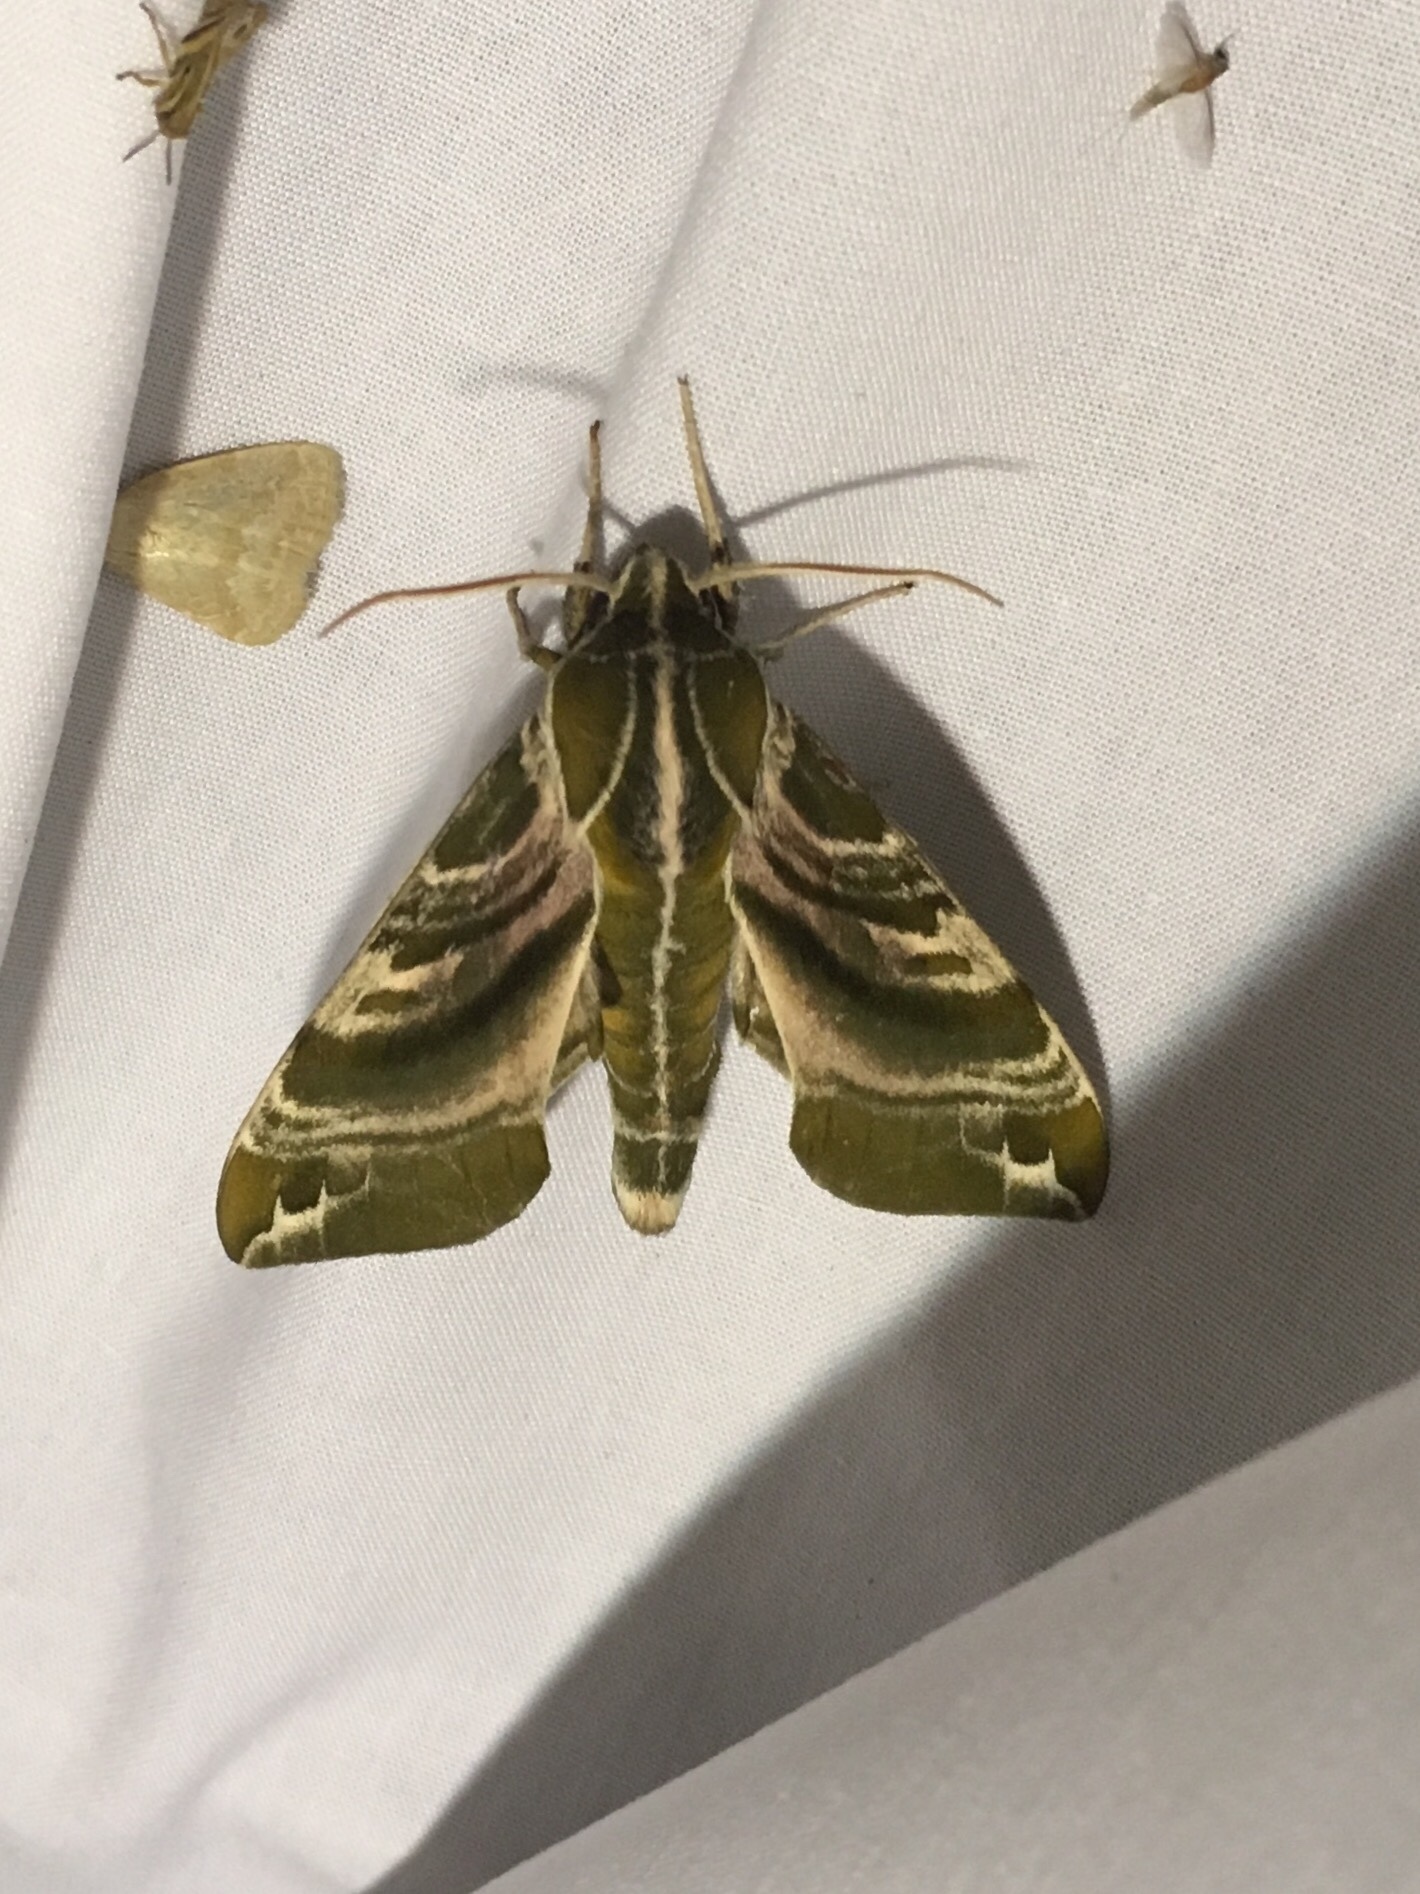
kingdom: Animalia
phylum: Arthropoda
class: Insecta
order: Lepidoptera
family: Sphingidae
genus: Darapsa
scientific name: Darapsa versicolor
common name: Hydrangea sphinx
